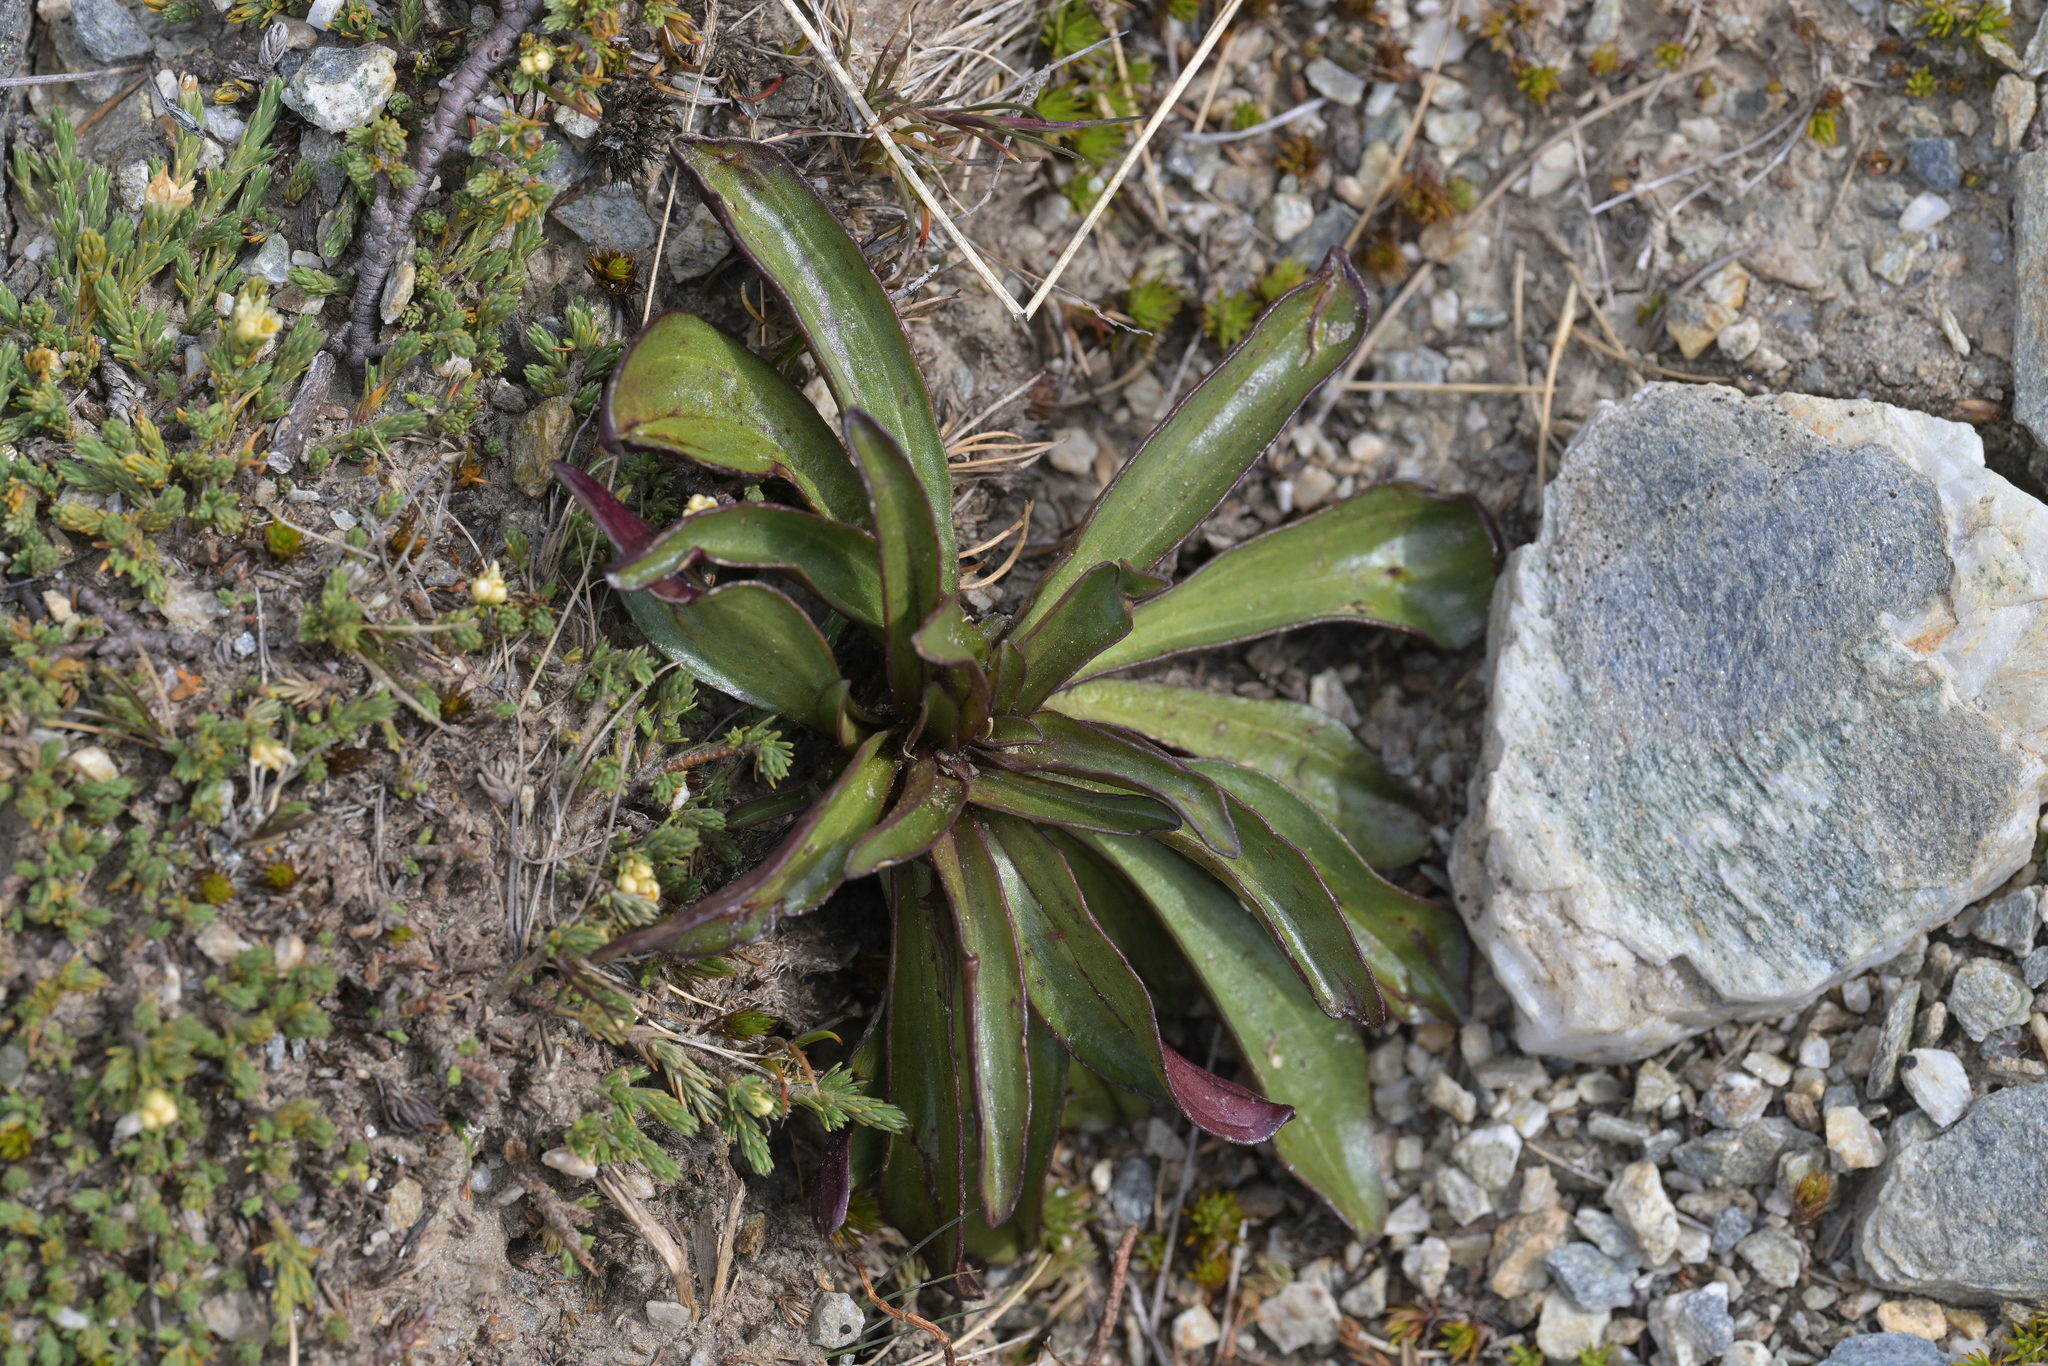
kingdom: Plantae
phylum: Tracheophyta
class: Magnoliopsida
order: Gentianales
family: Gentianaceae
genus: Gentianella
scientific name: Gentianella corymbifera
